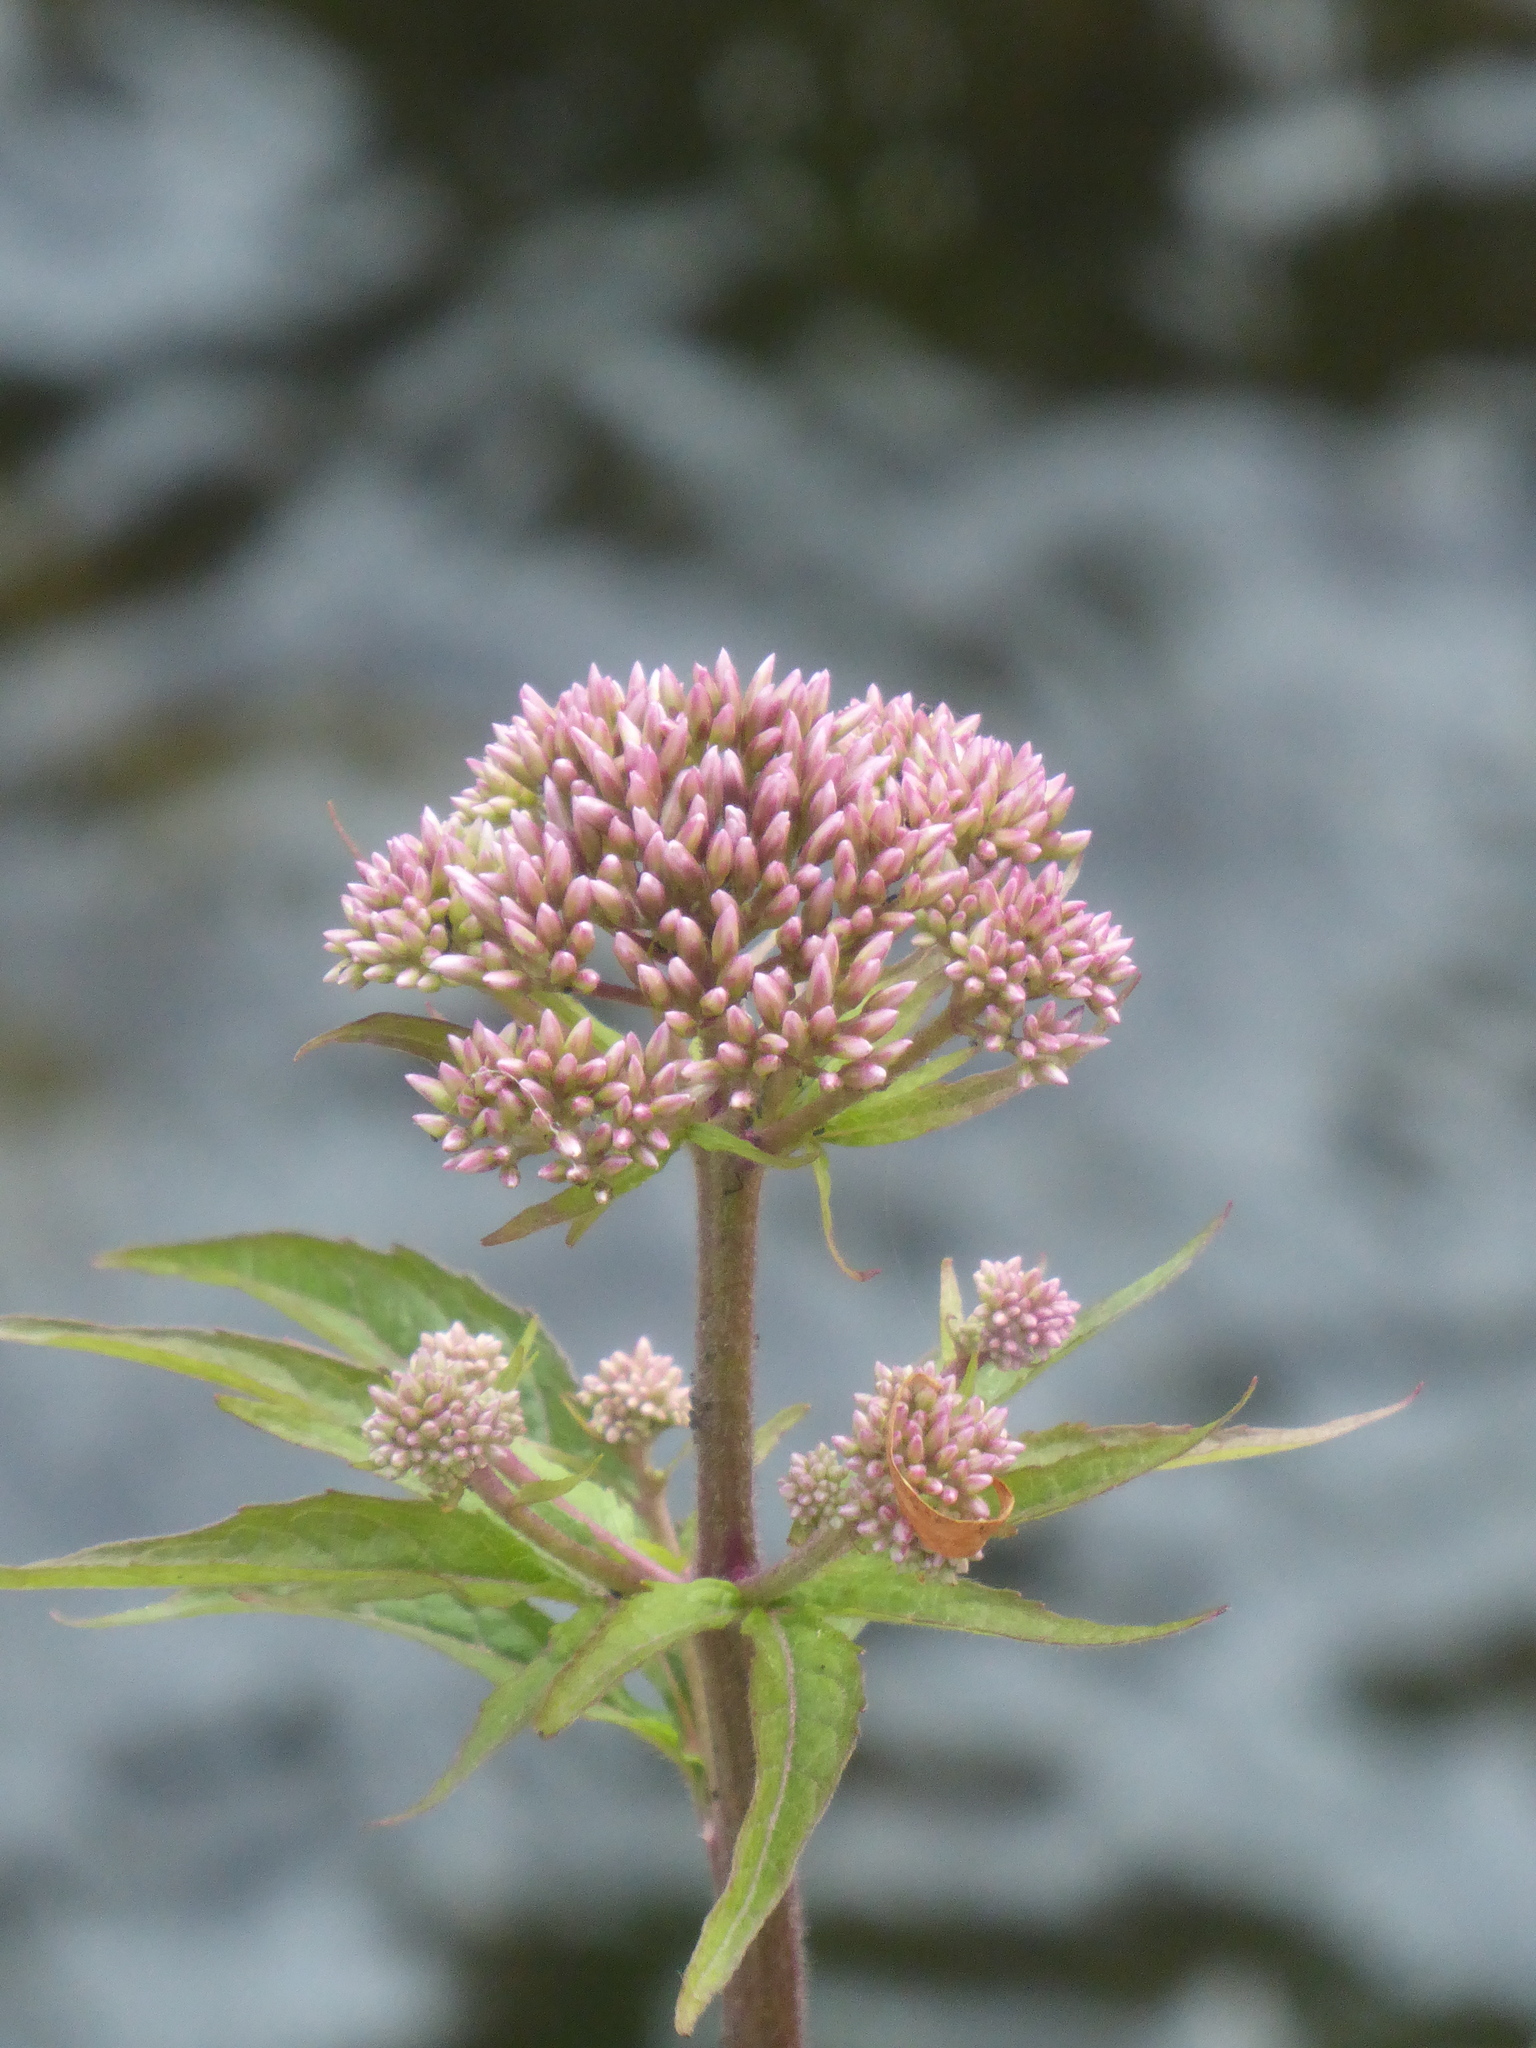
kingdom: Plantae
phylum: Tracheophyta
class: Magnoliopsida
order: Asterales
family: Asteraceae
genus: Eupatorium
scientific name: Eupatorium cannabinum
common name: Hemp-agrimony
